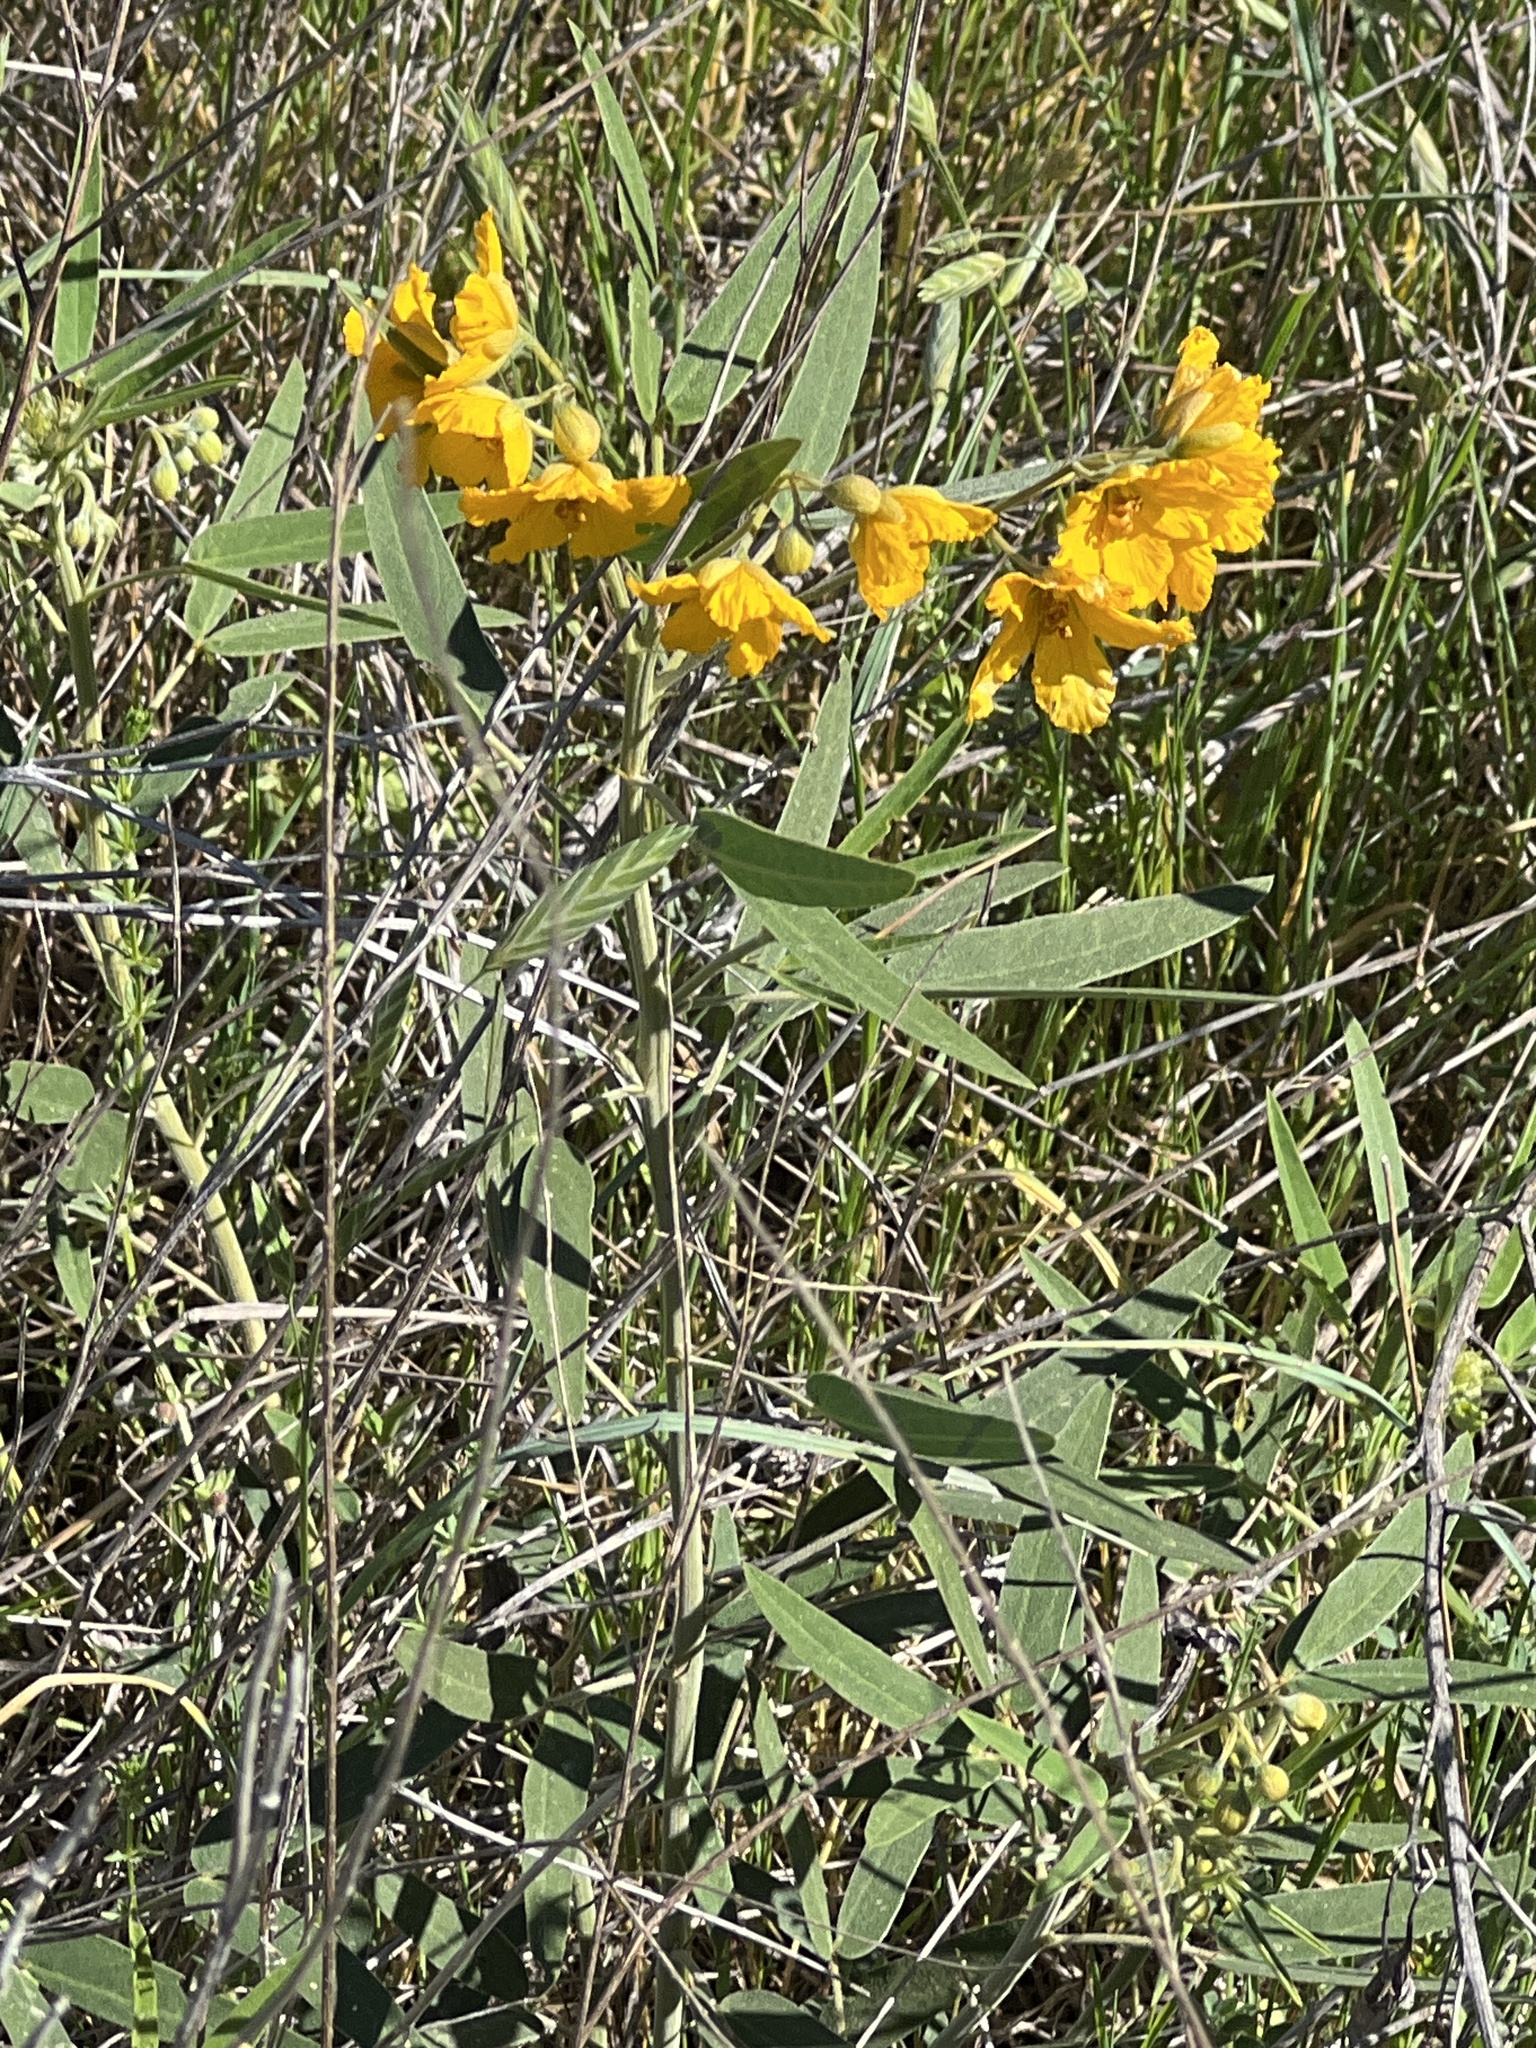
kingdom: Plantae
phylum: Tracheophyta
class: Magnoliopsida
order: Fabales
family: Fabaceae
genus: Senna
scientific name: Senna roemeriana
